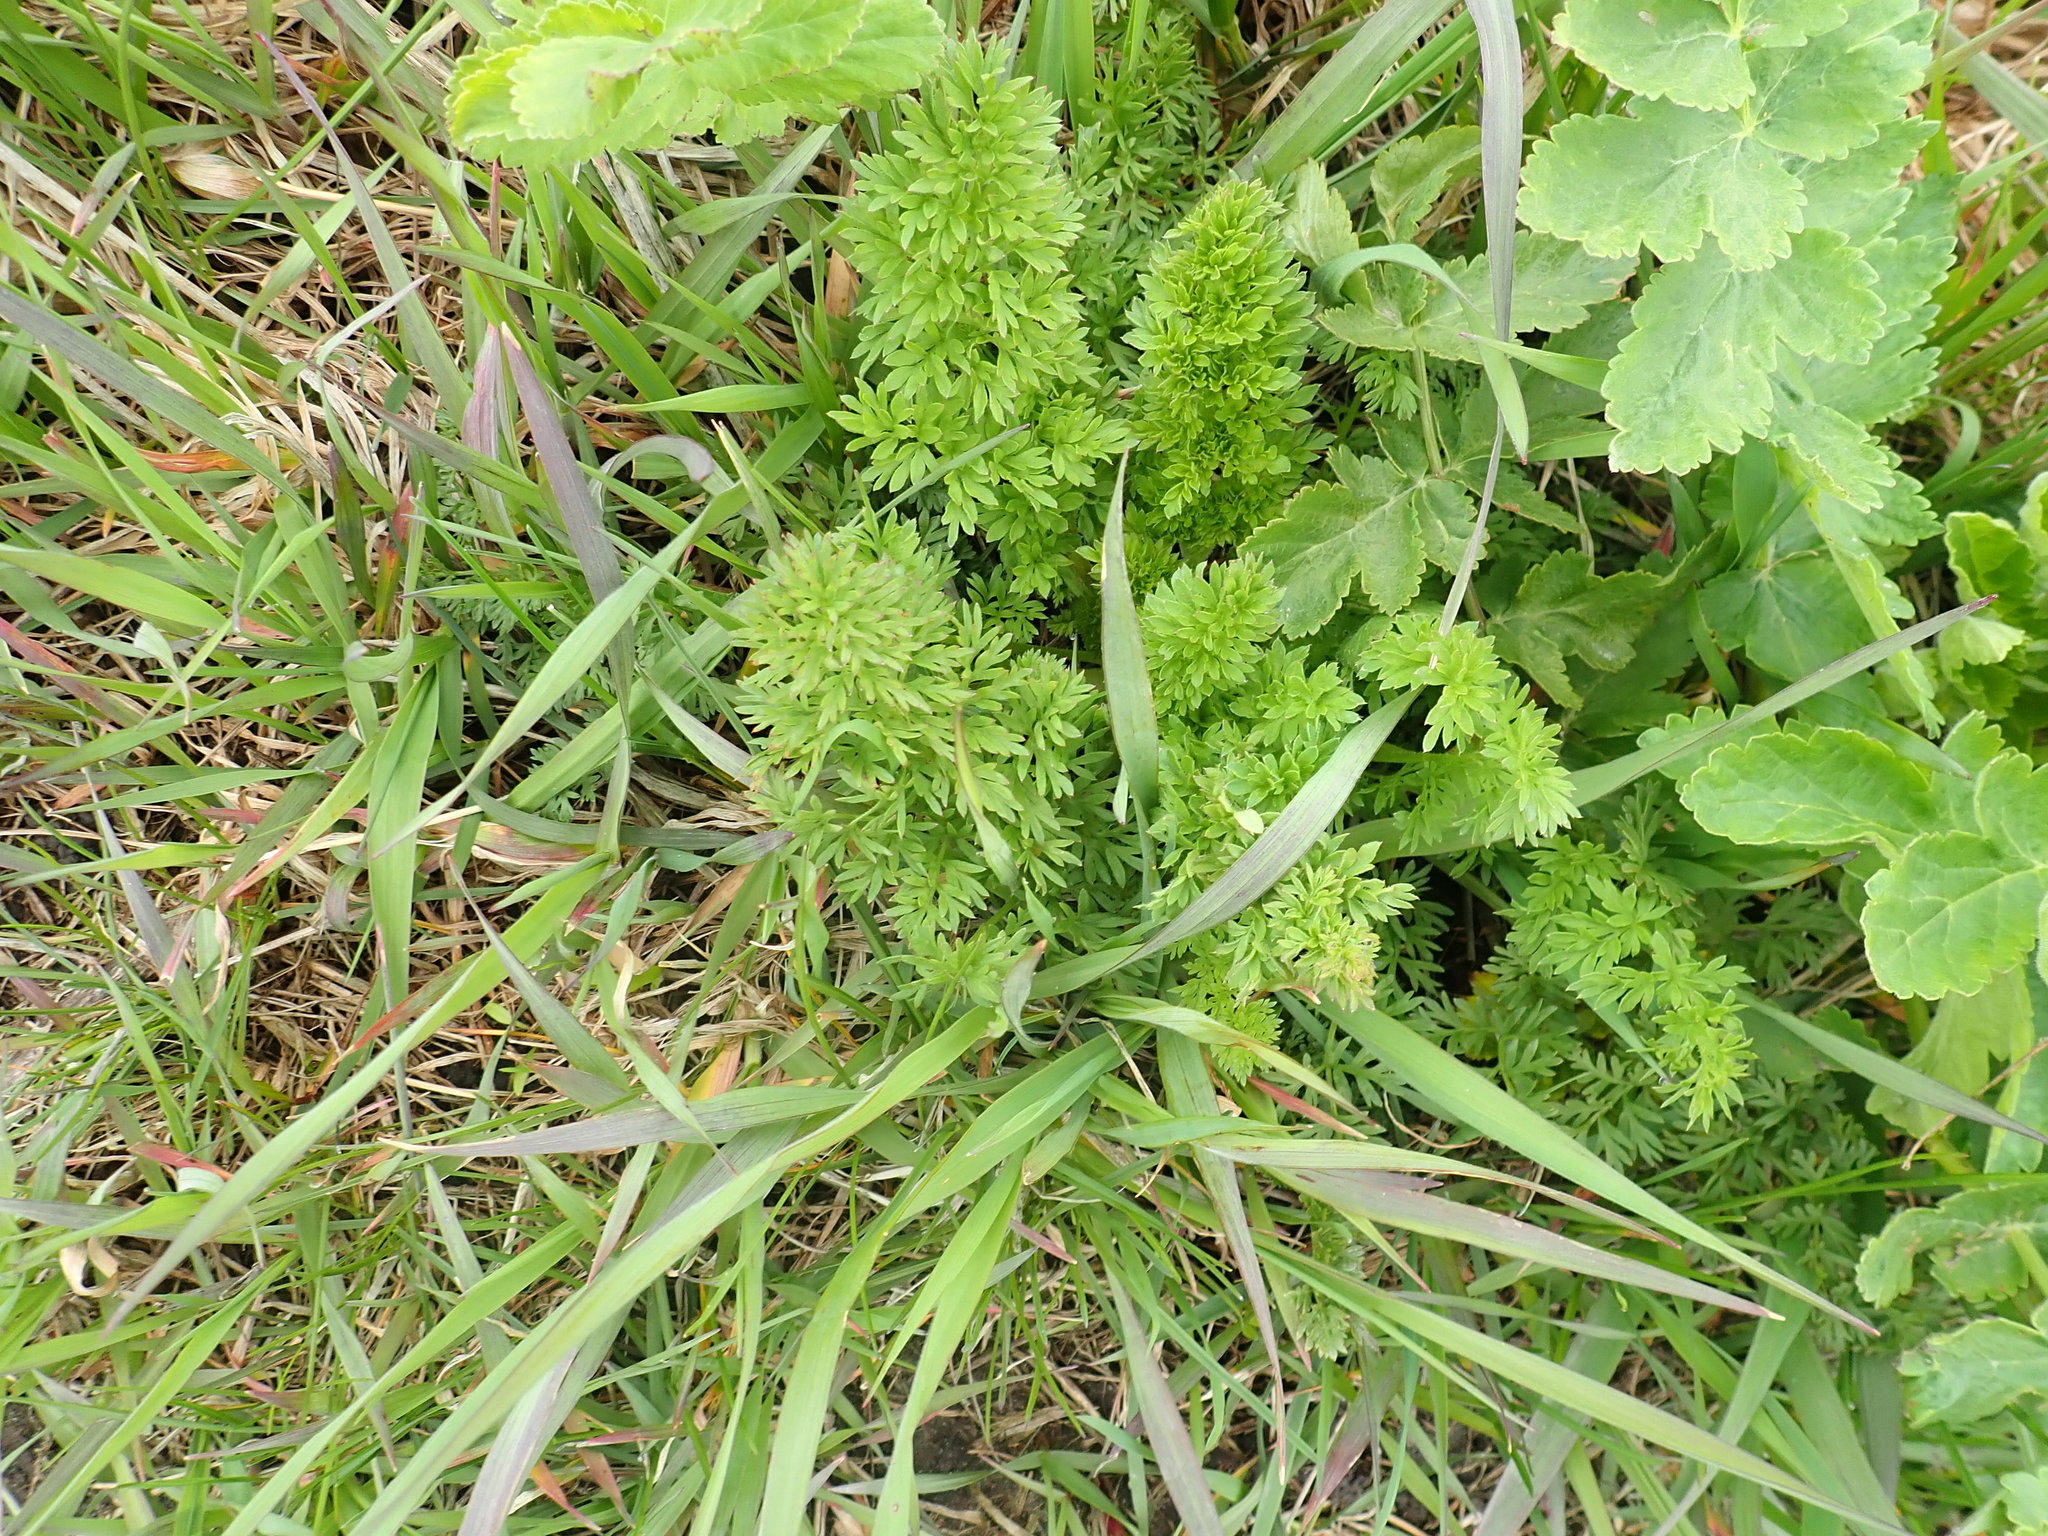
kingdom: Plantae
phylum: Tracheophyta
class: Magnoliopsida
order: Apiales
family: Apiaceae
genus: Daucus
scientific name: Daucus carota
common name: Wild carrot
